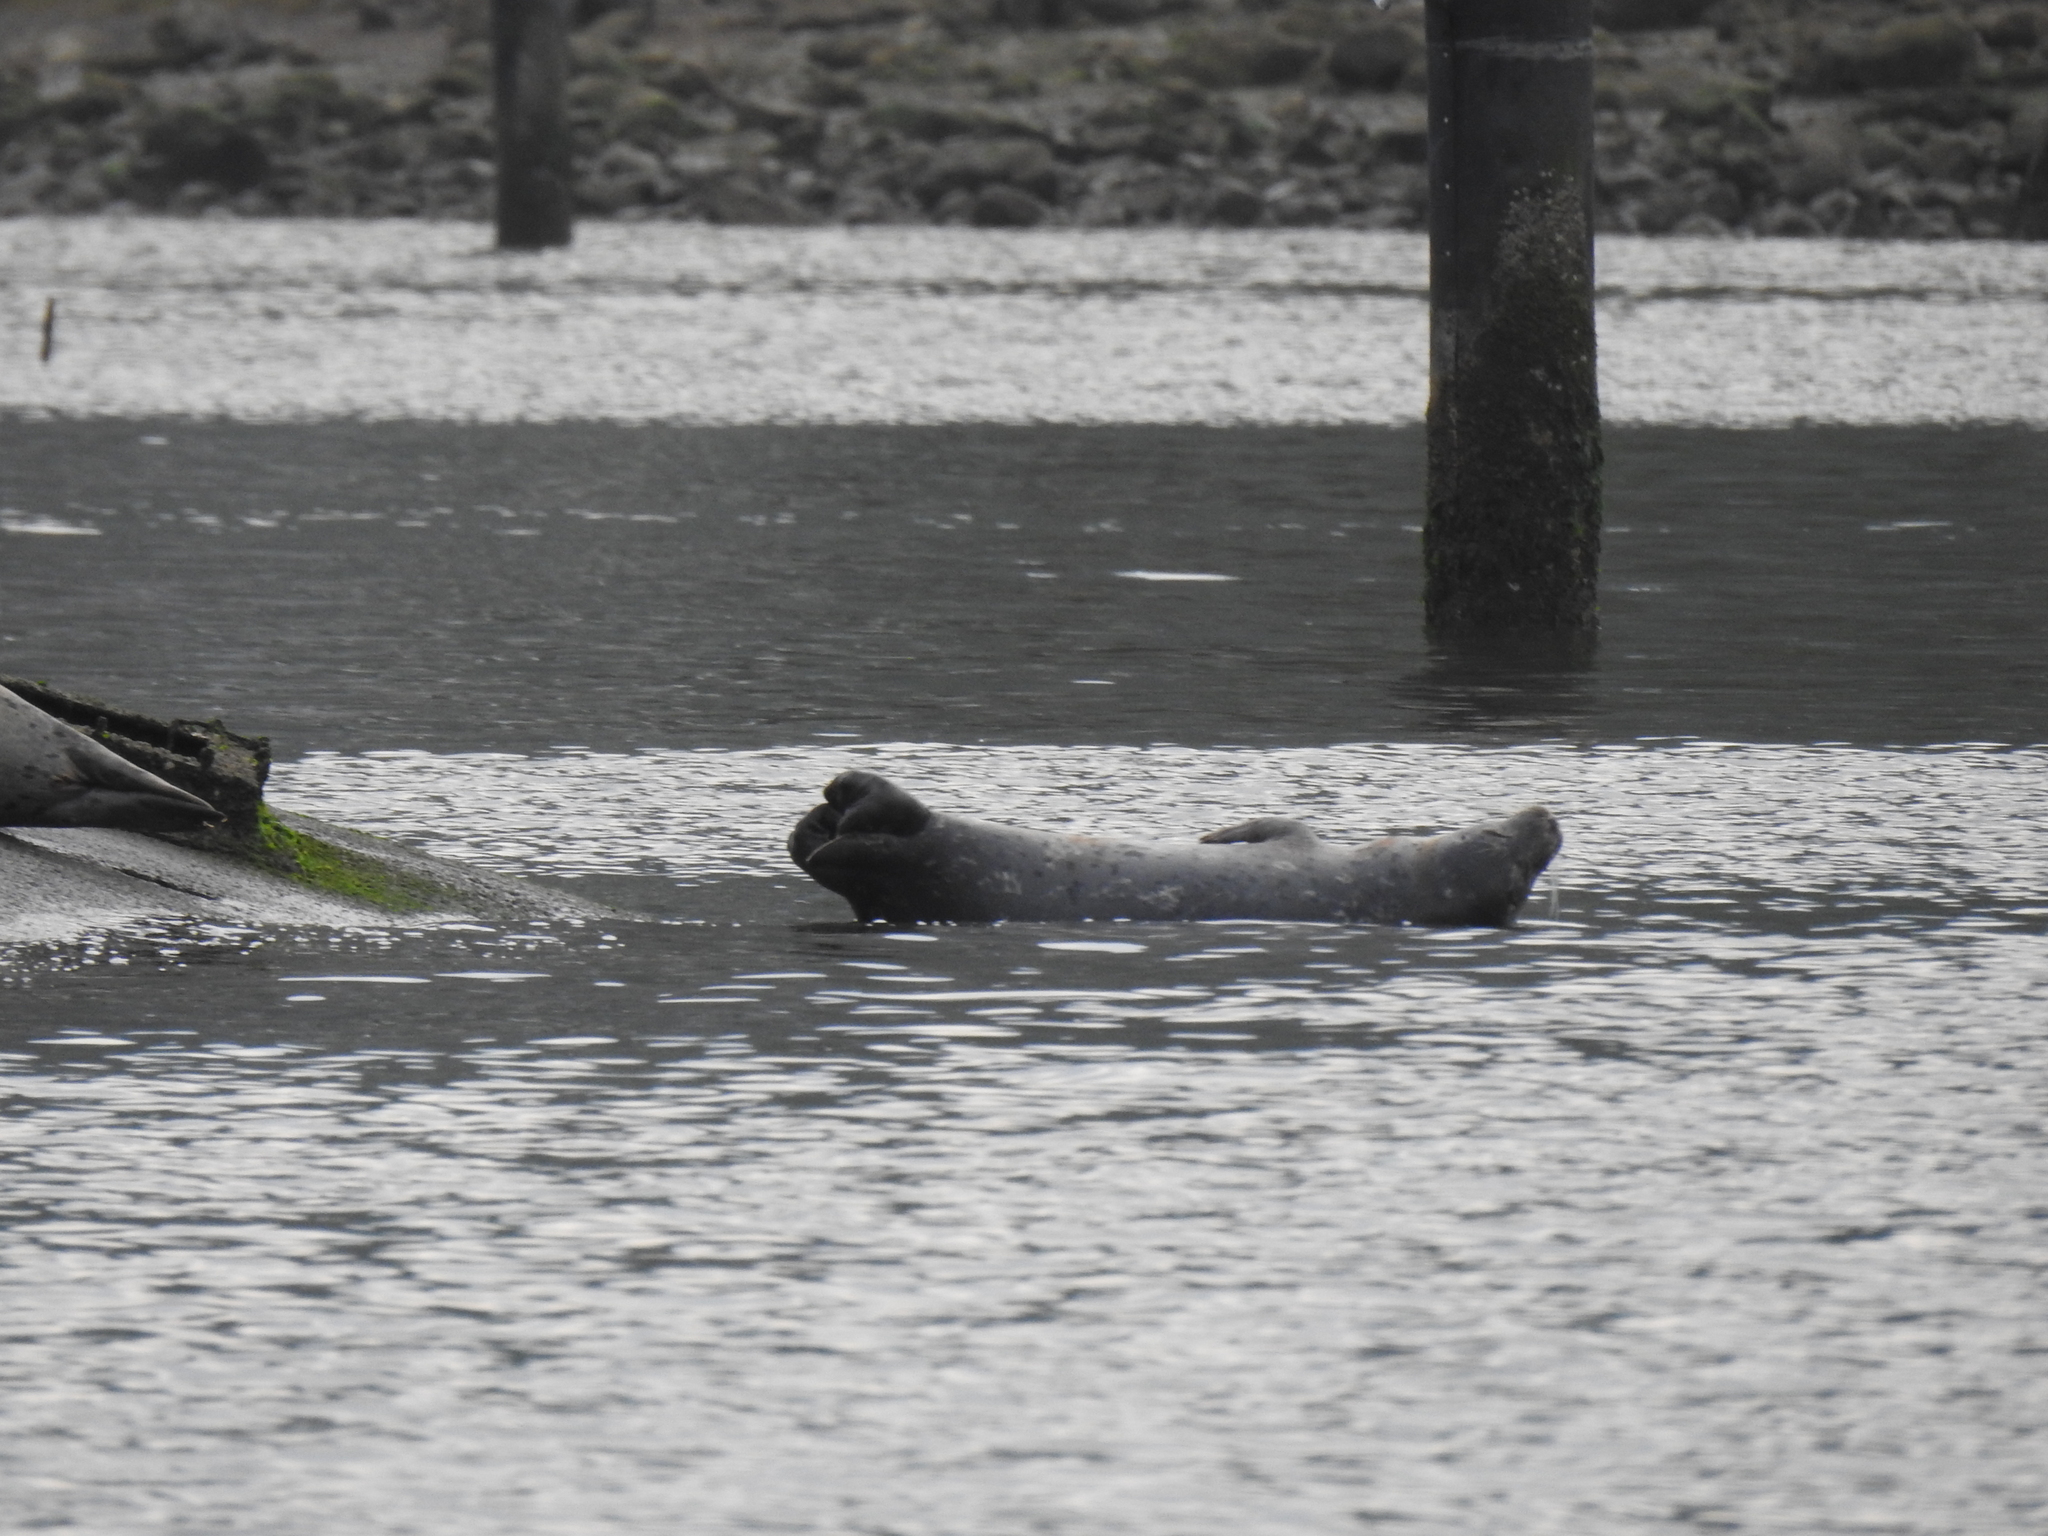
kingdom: Animalia
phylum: Chordata
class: Mammalia
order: Carnivora
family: Phocidae
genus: Phoca
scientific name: Phoca vitulina
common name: Harbor seal
